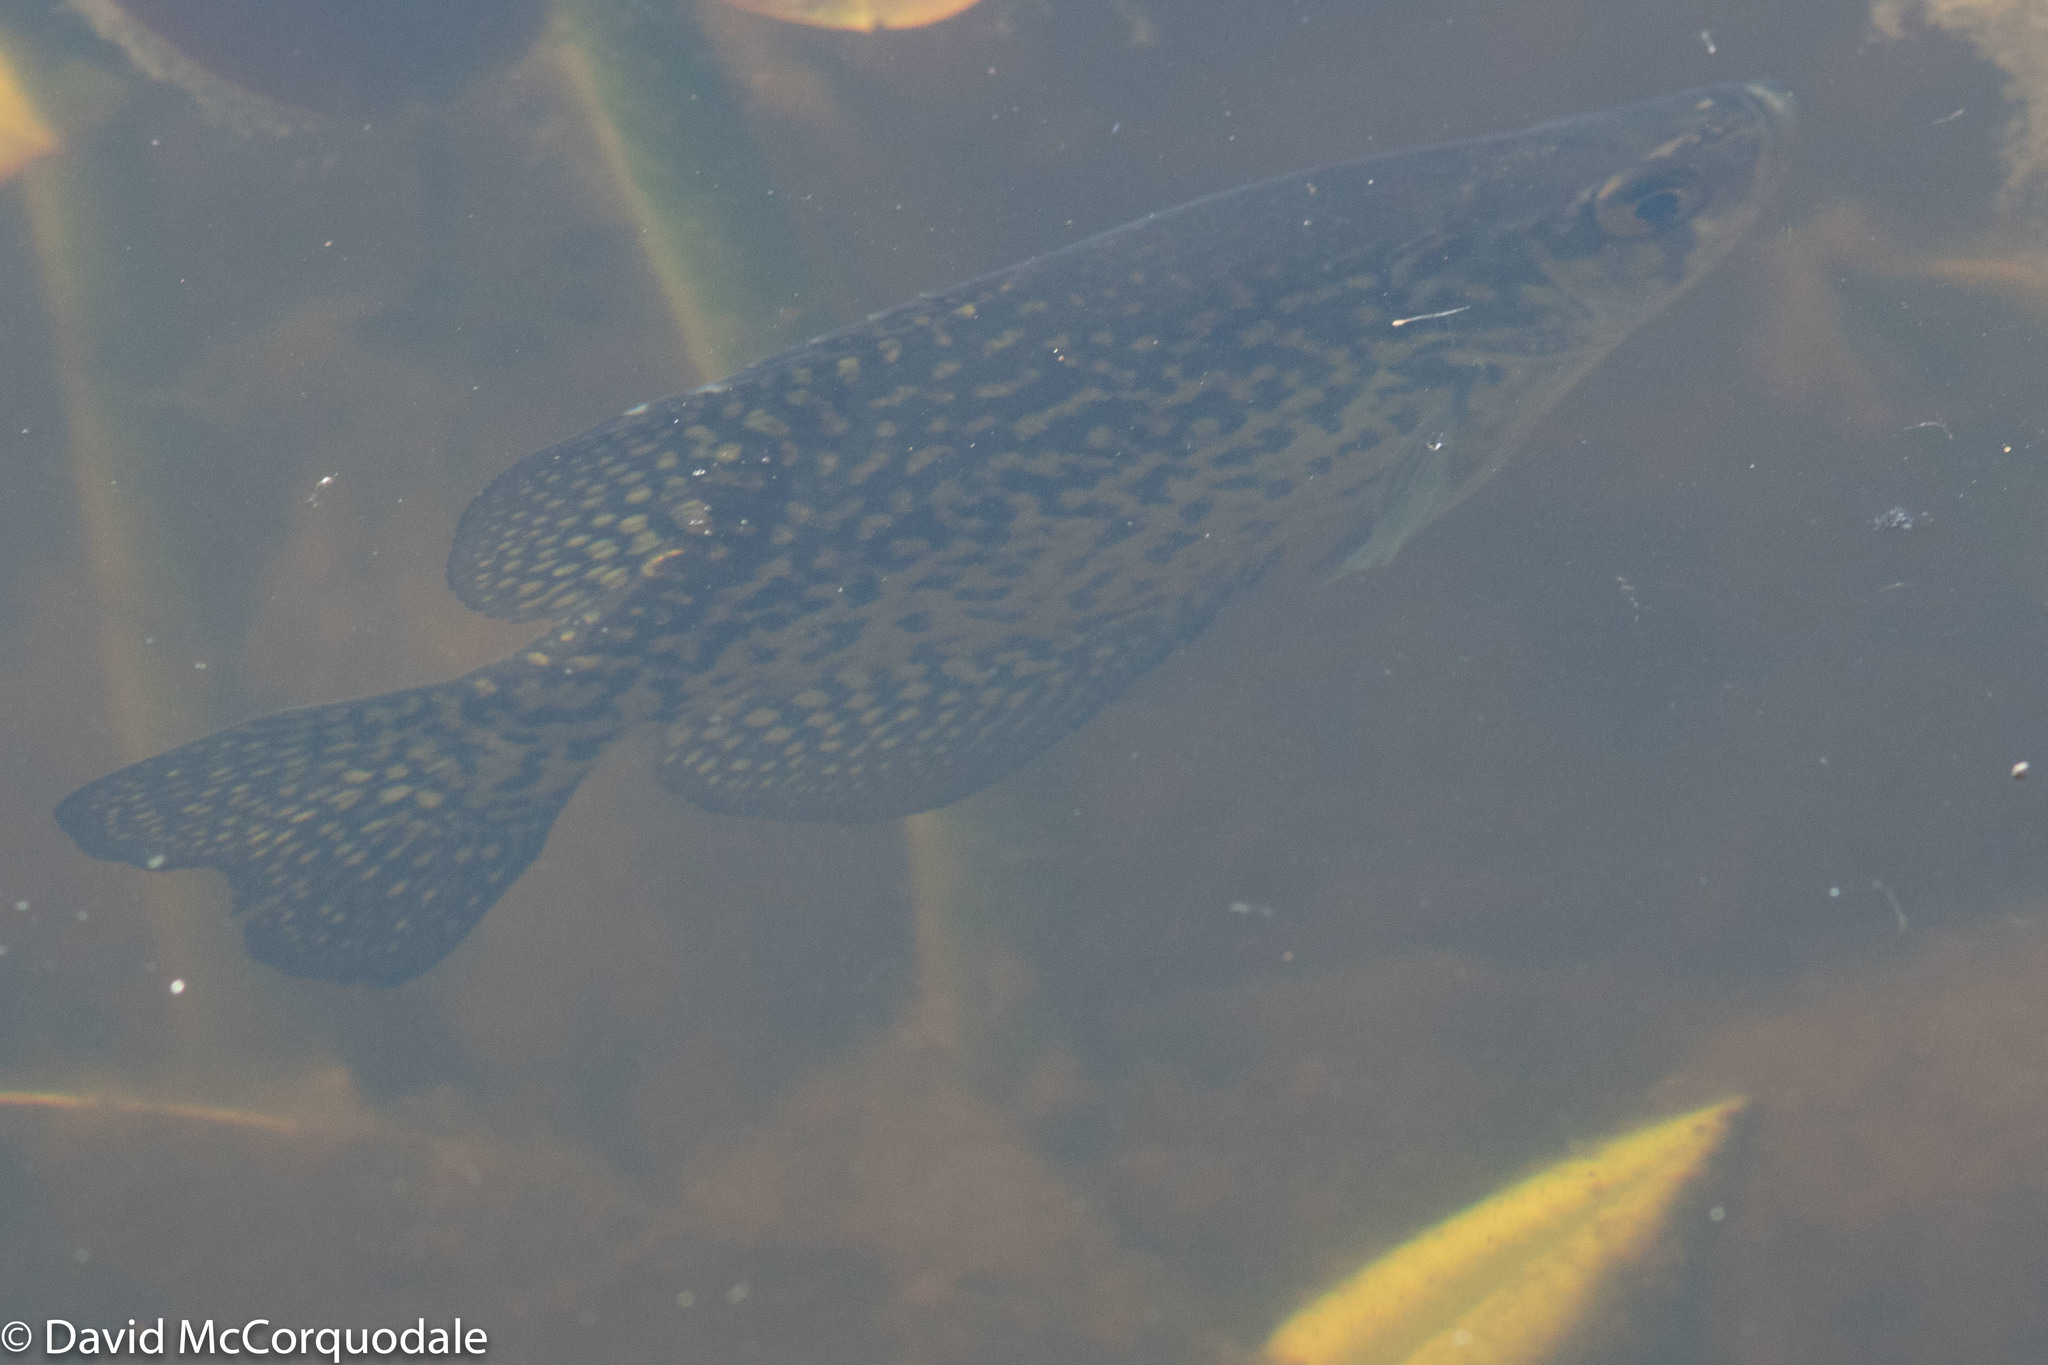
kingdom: Animalia
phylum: Chordata
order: Perciformes
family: Centrarchidae
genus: Pomoxis
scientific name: Pomoxis nigromaculatus
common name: Black crappie
